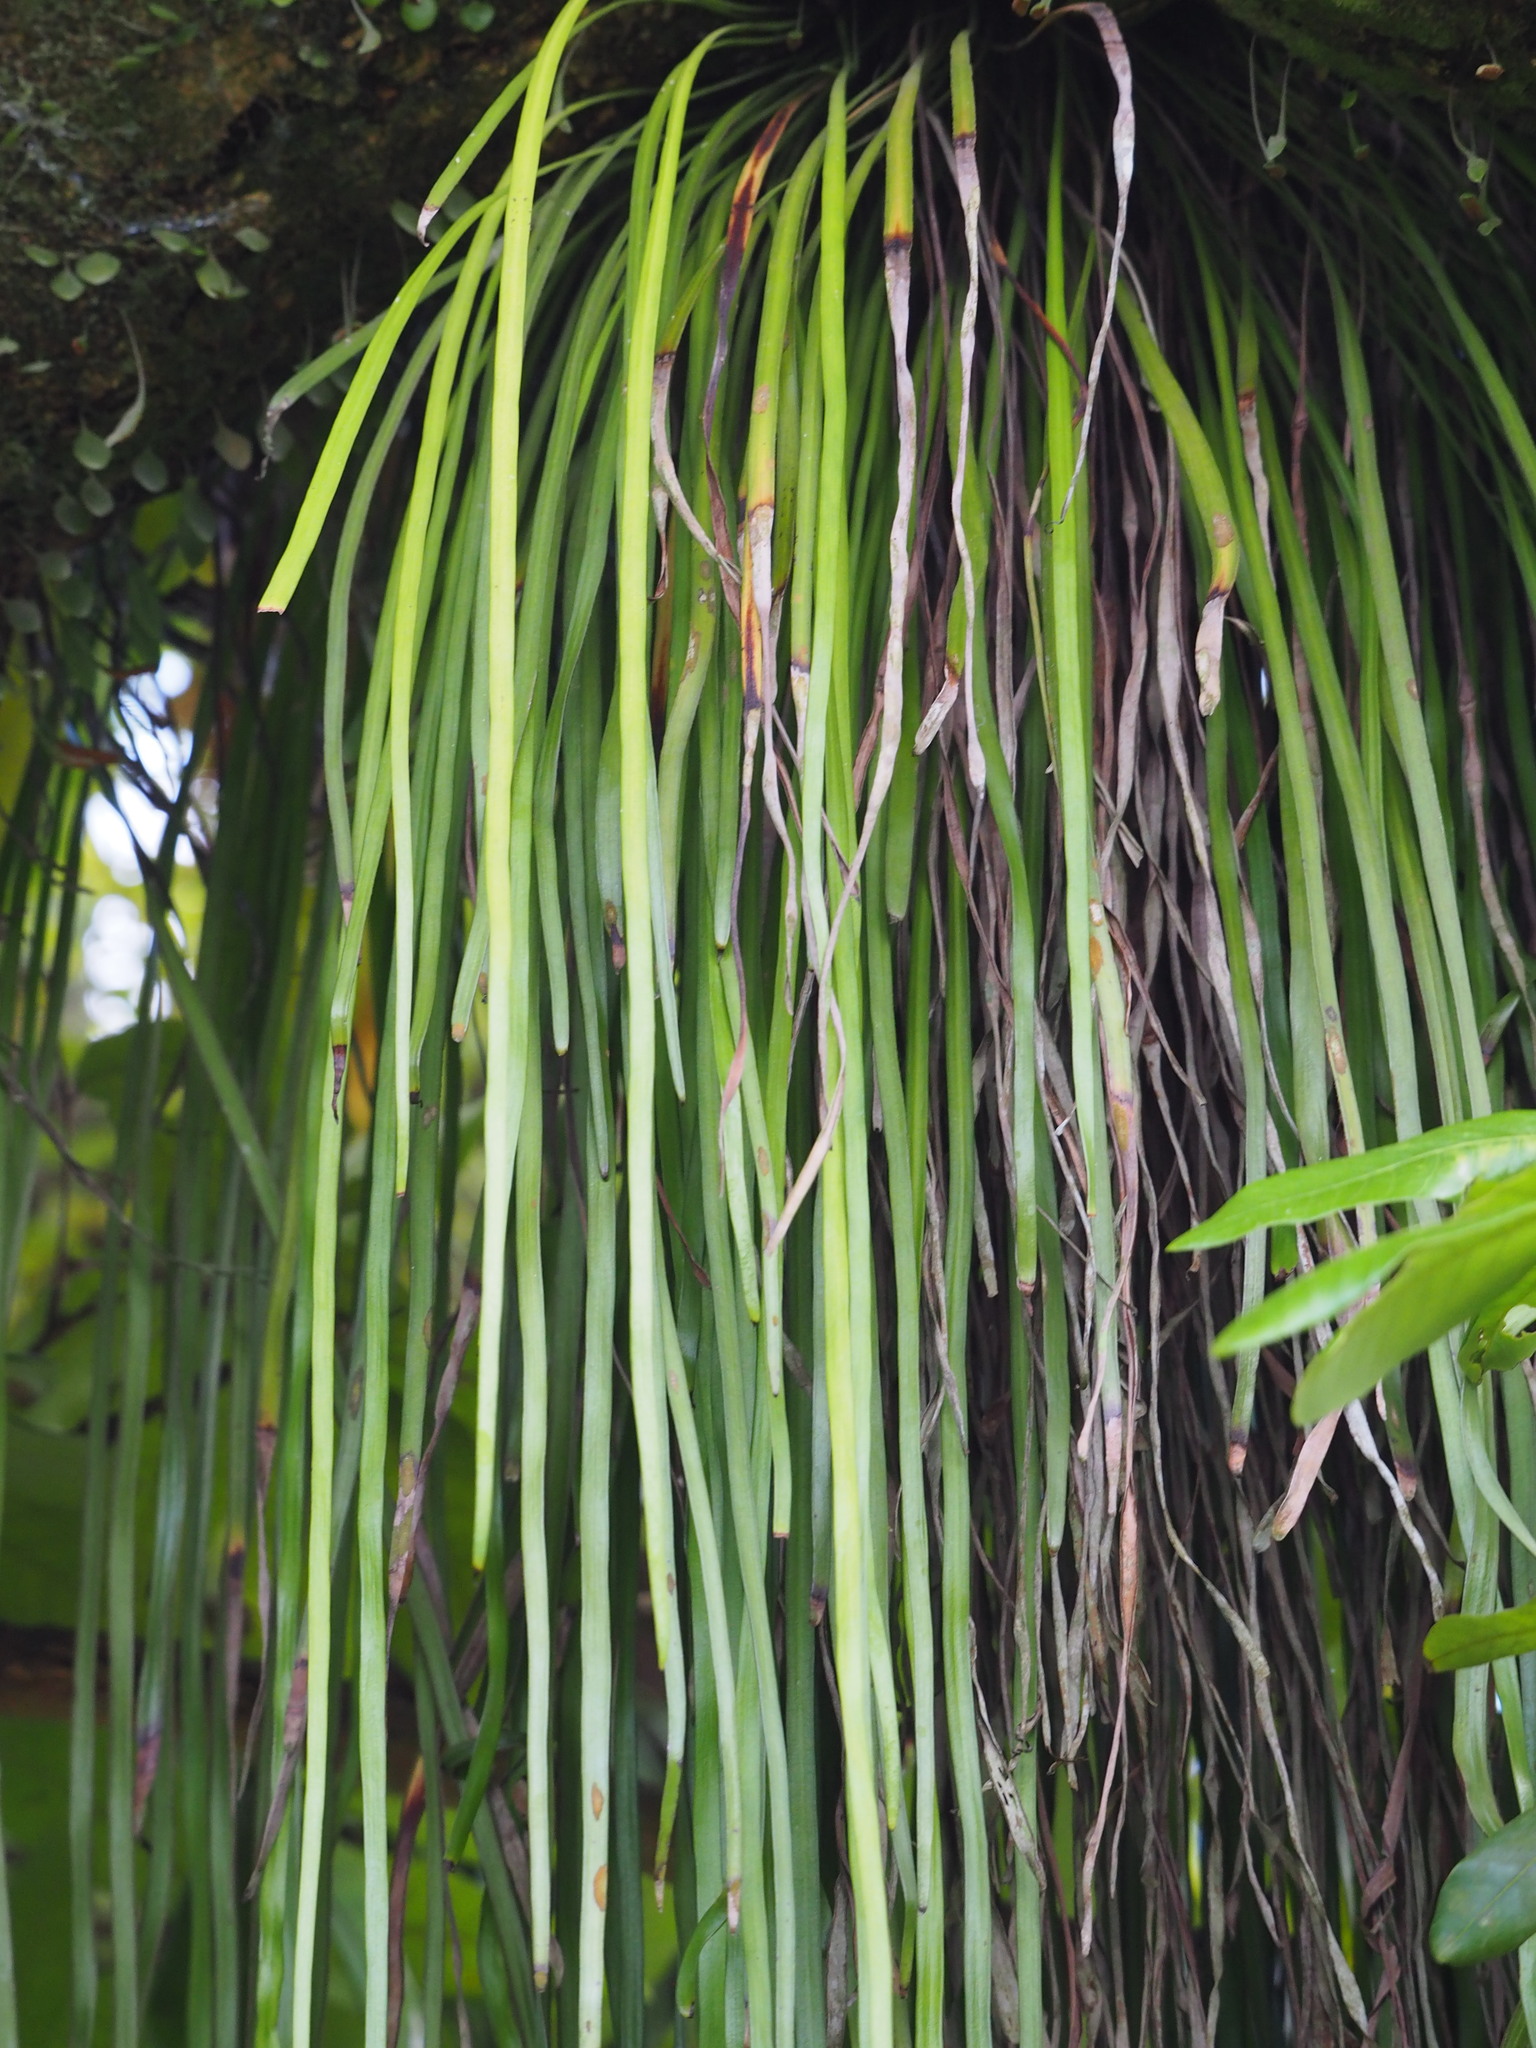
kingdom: Plantae
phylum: Tracheophyta
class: Polypodiopsida
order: Polypodiales
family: Pteridaceae
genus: Haplopteris
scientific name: Haplopteris elongata
